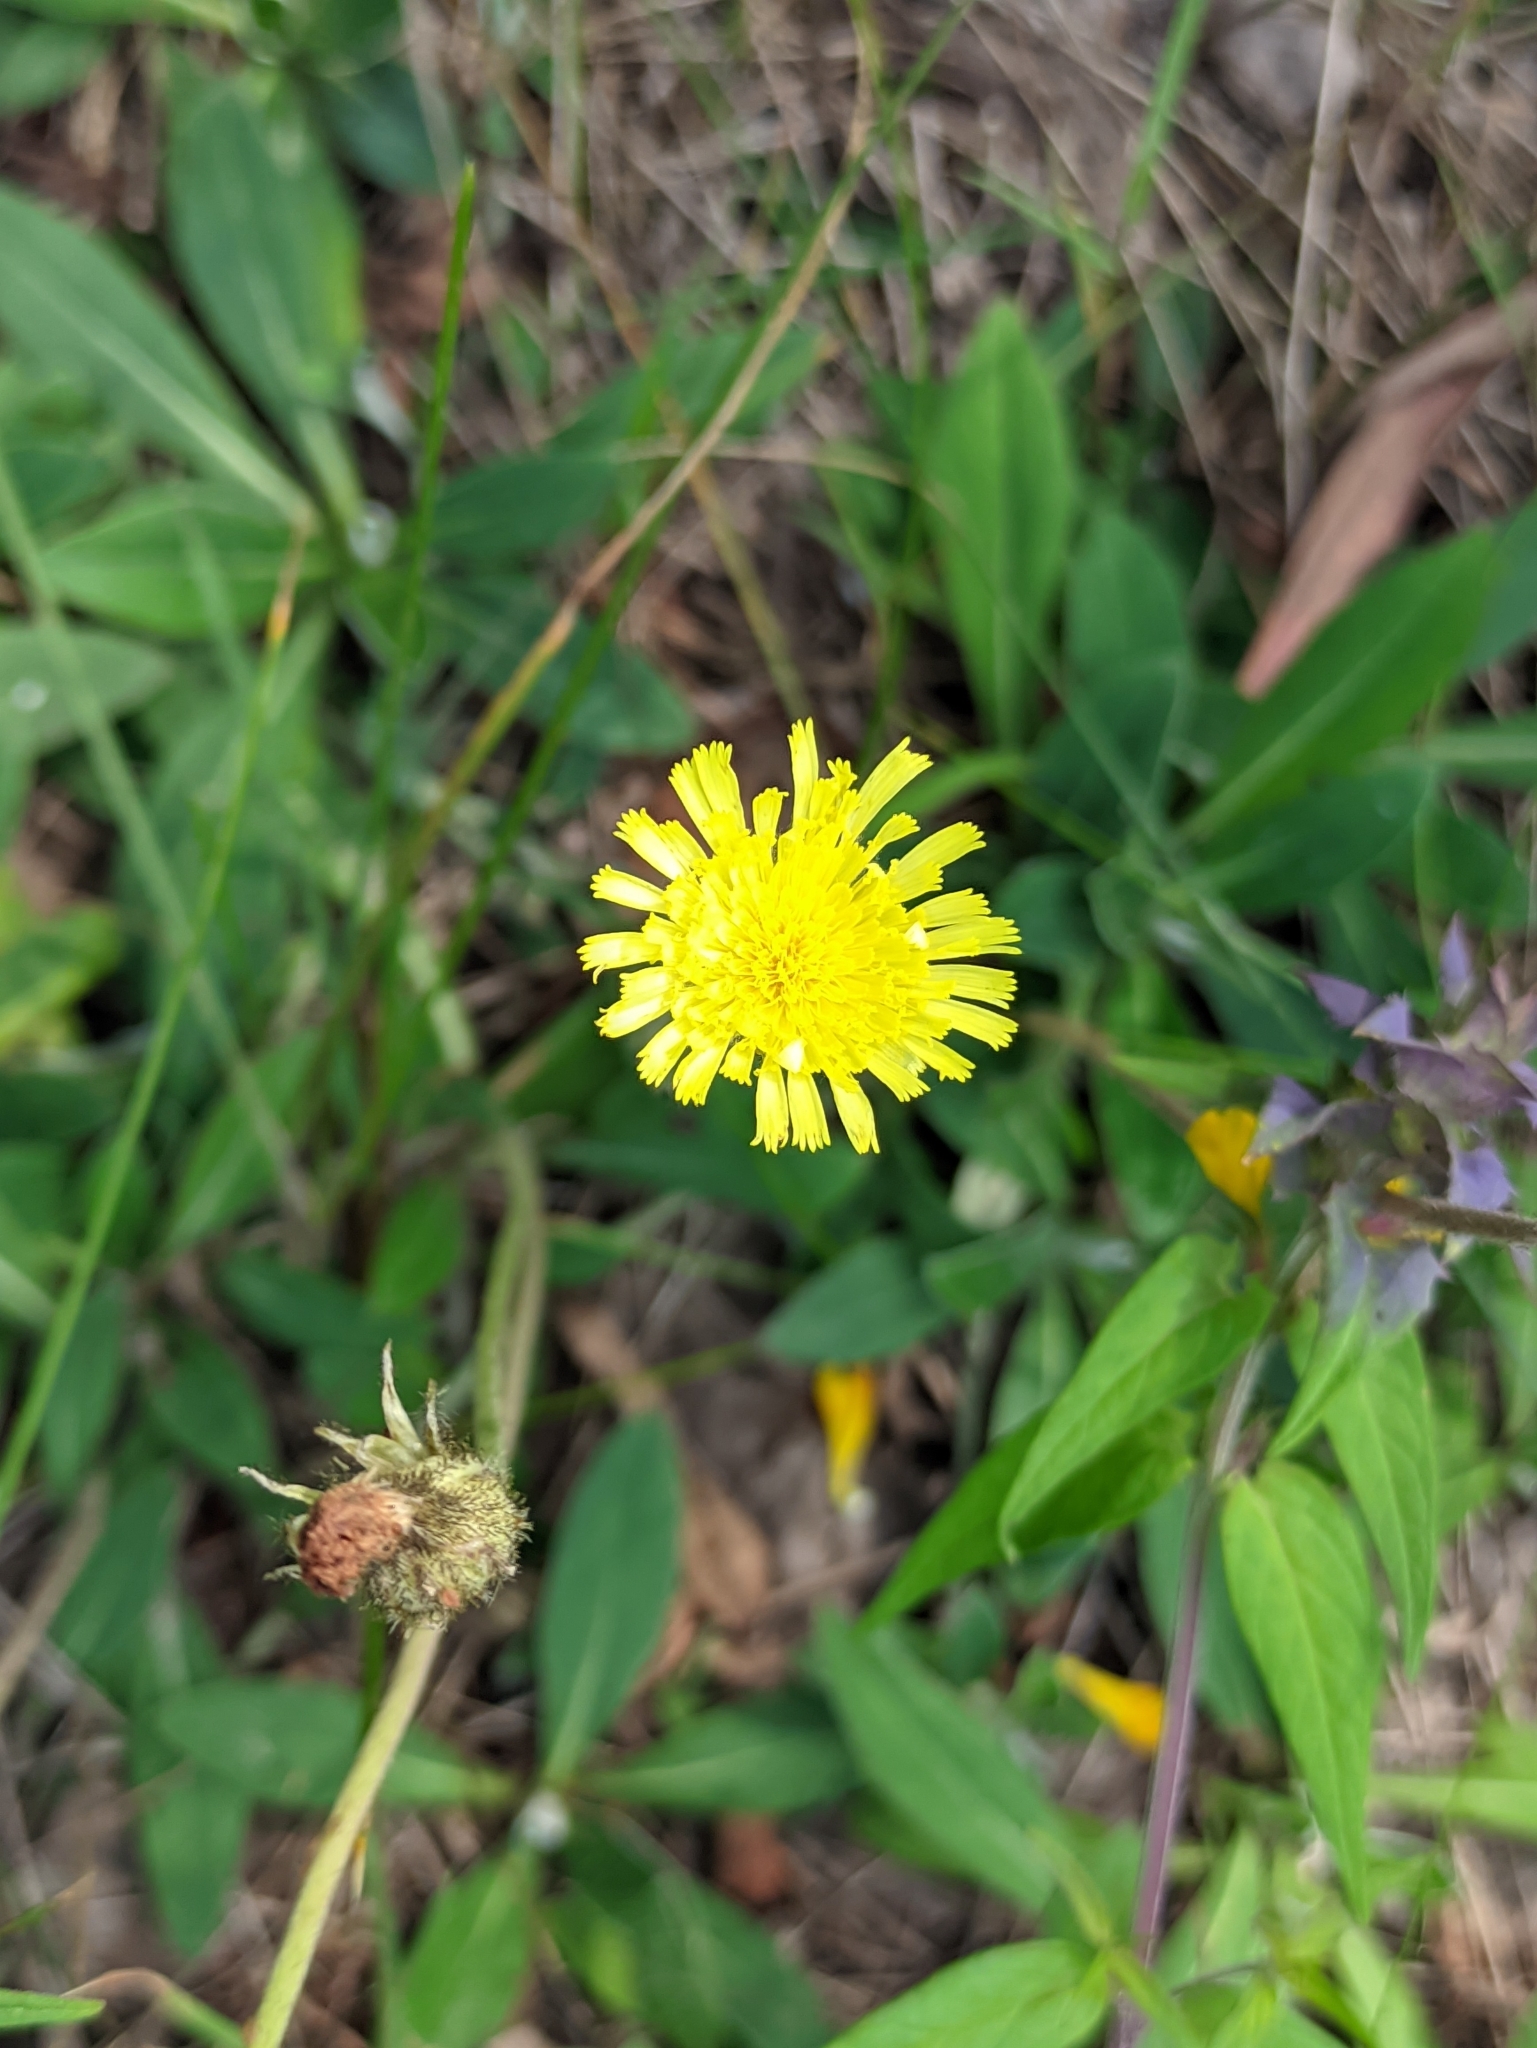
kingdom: Plantae
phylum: Tracheophyta
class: Magnoliopsida
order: Asterales
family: Asteraceae
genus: Pilosella
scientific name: Pilosella officinarum
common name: Mouse-ear hawkweed
